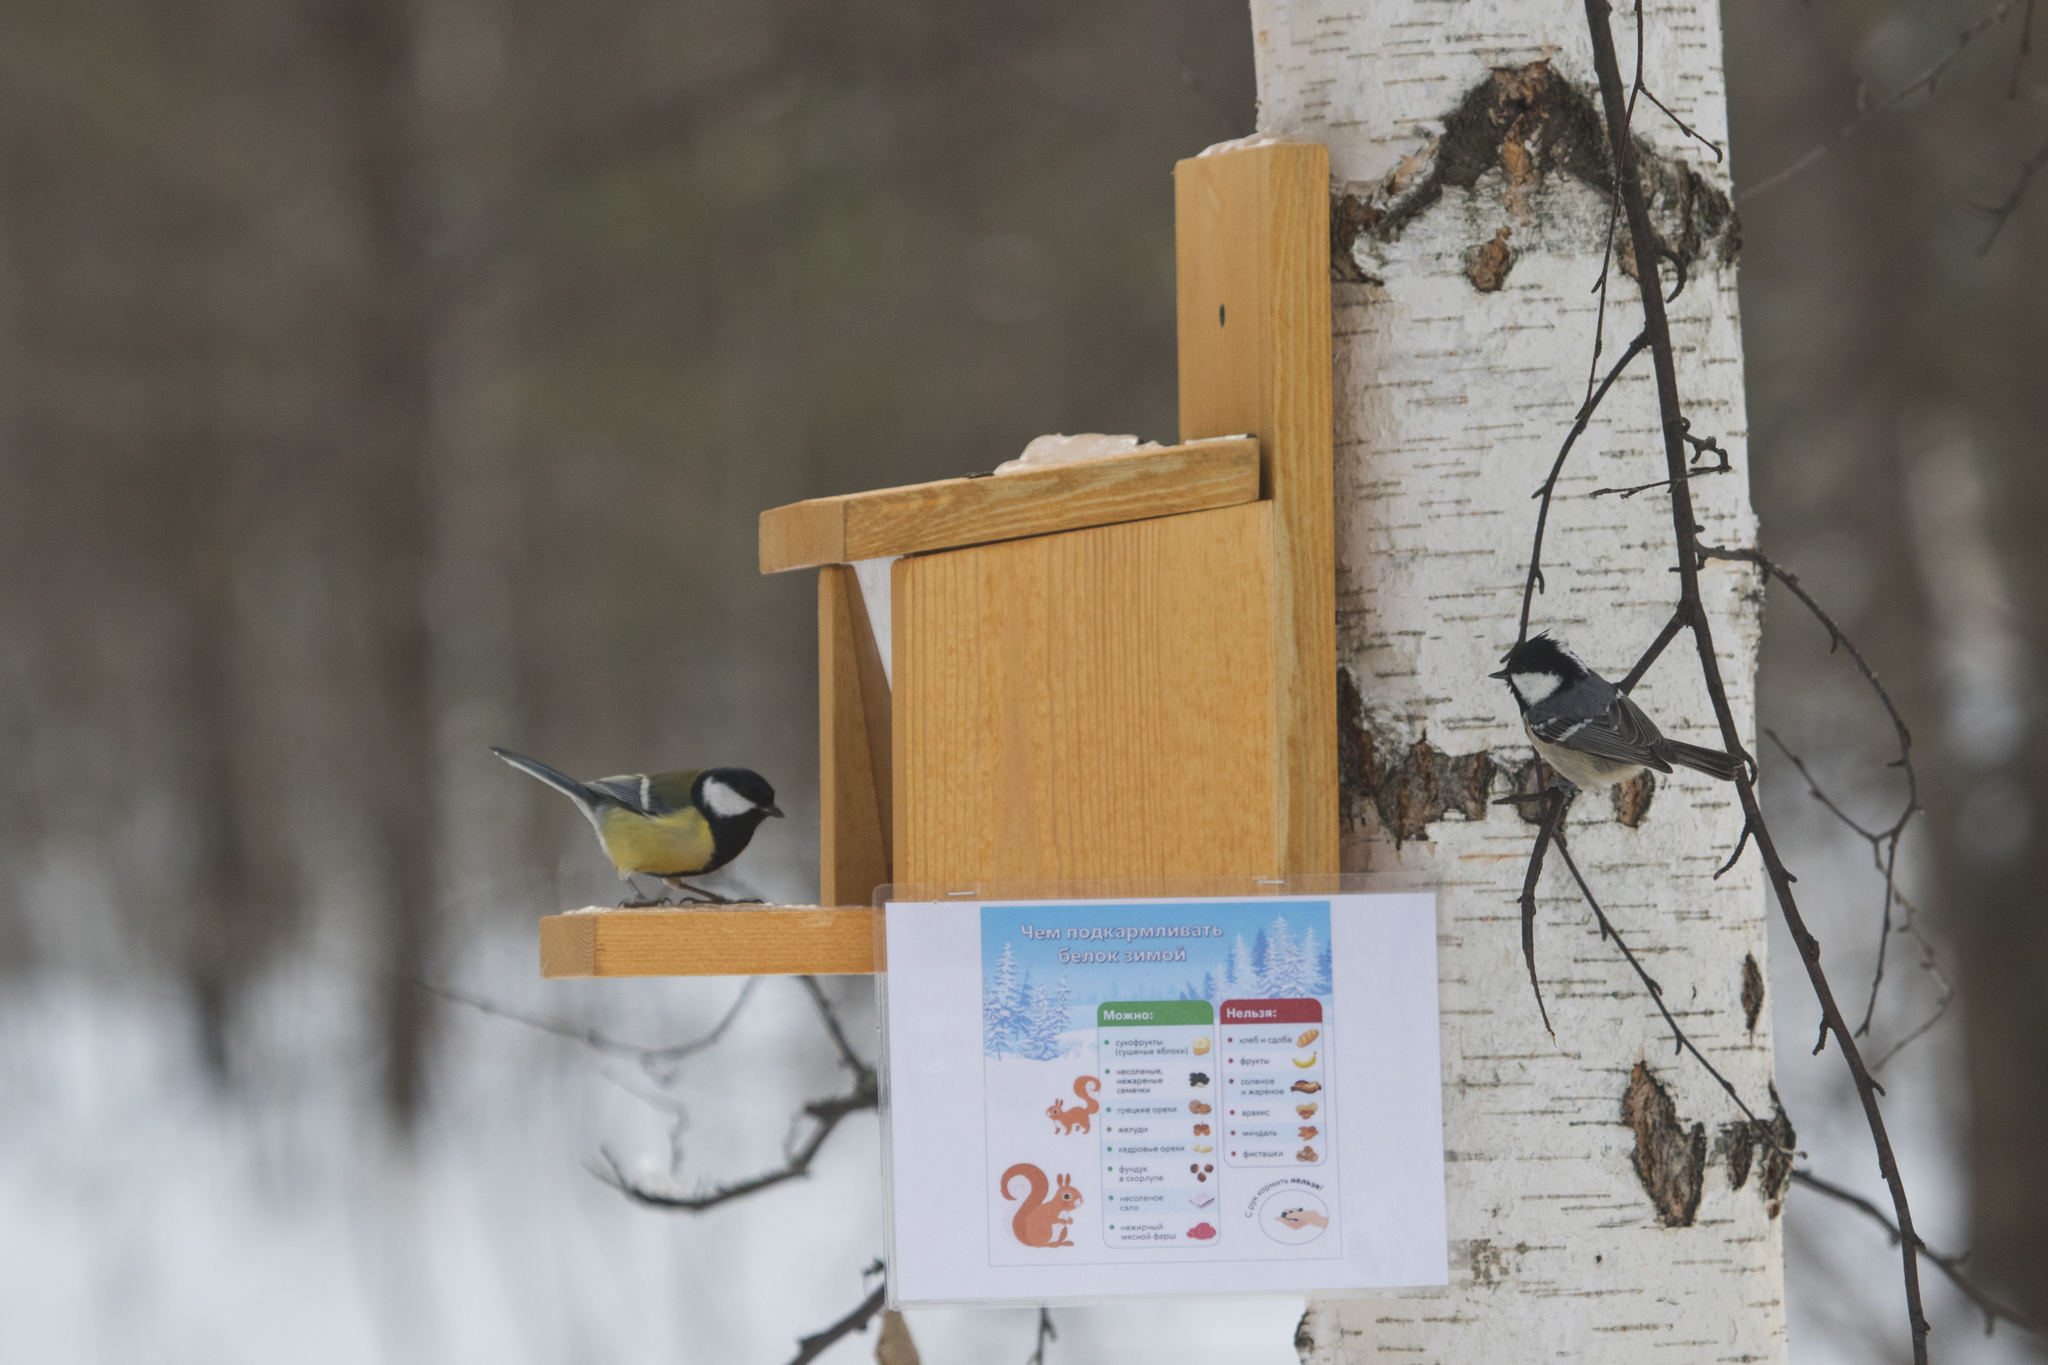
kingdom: Animalia
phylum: Chordata
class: Aves
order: Passeriformes
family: Paridae
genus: Parus
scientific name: Parus major
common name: Great tit
